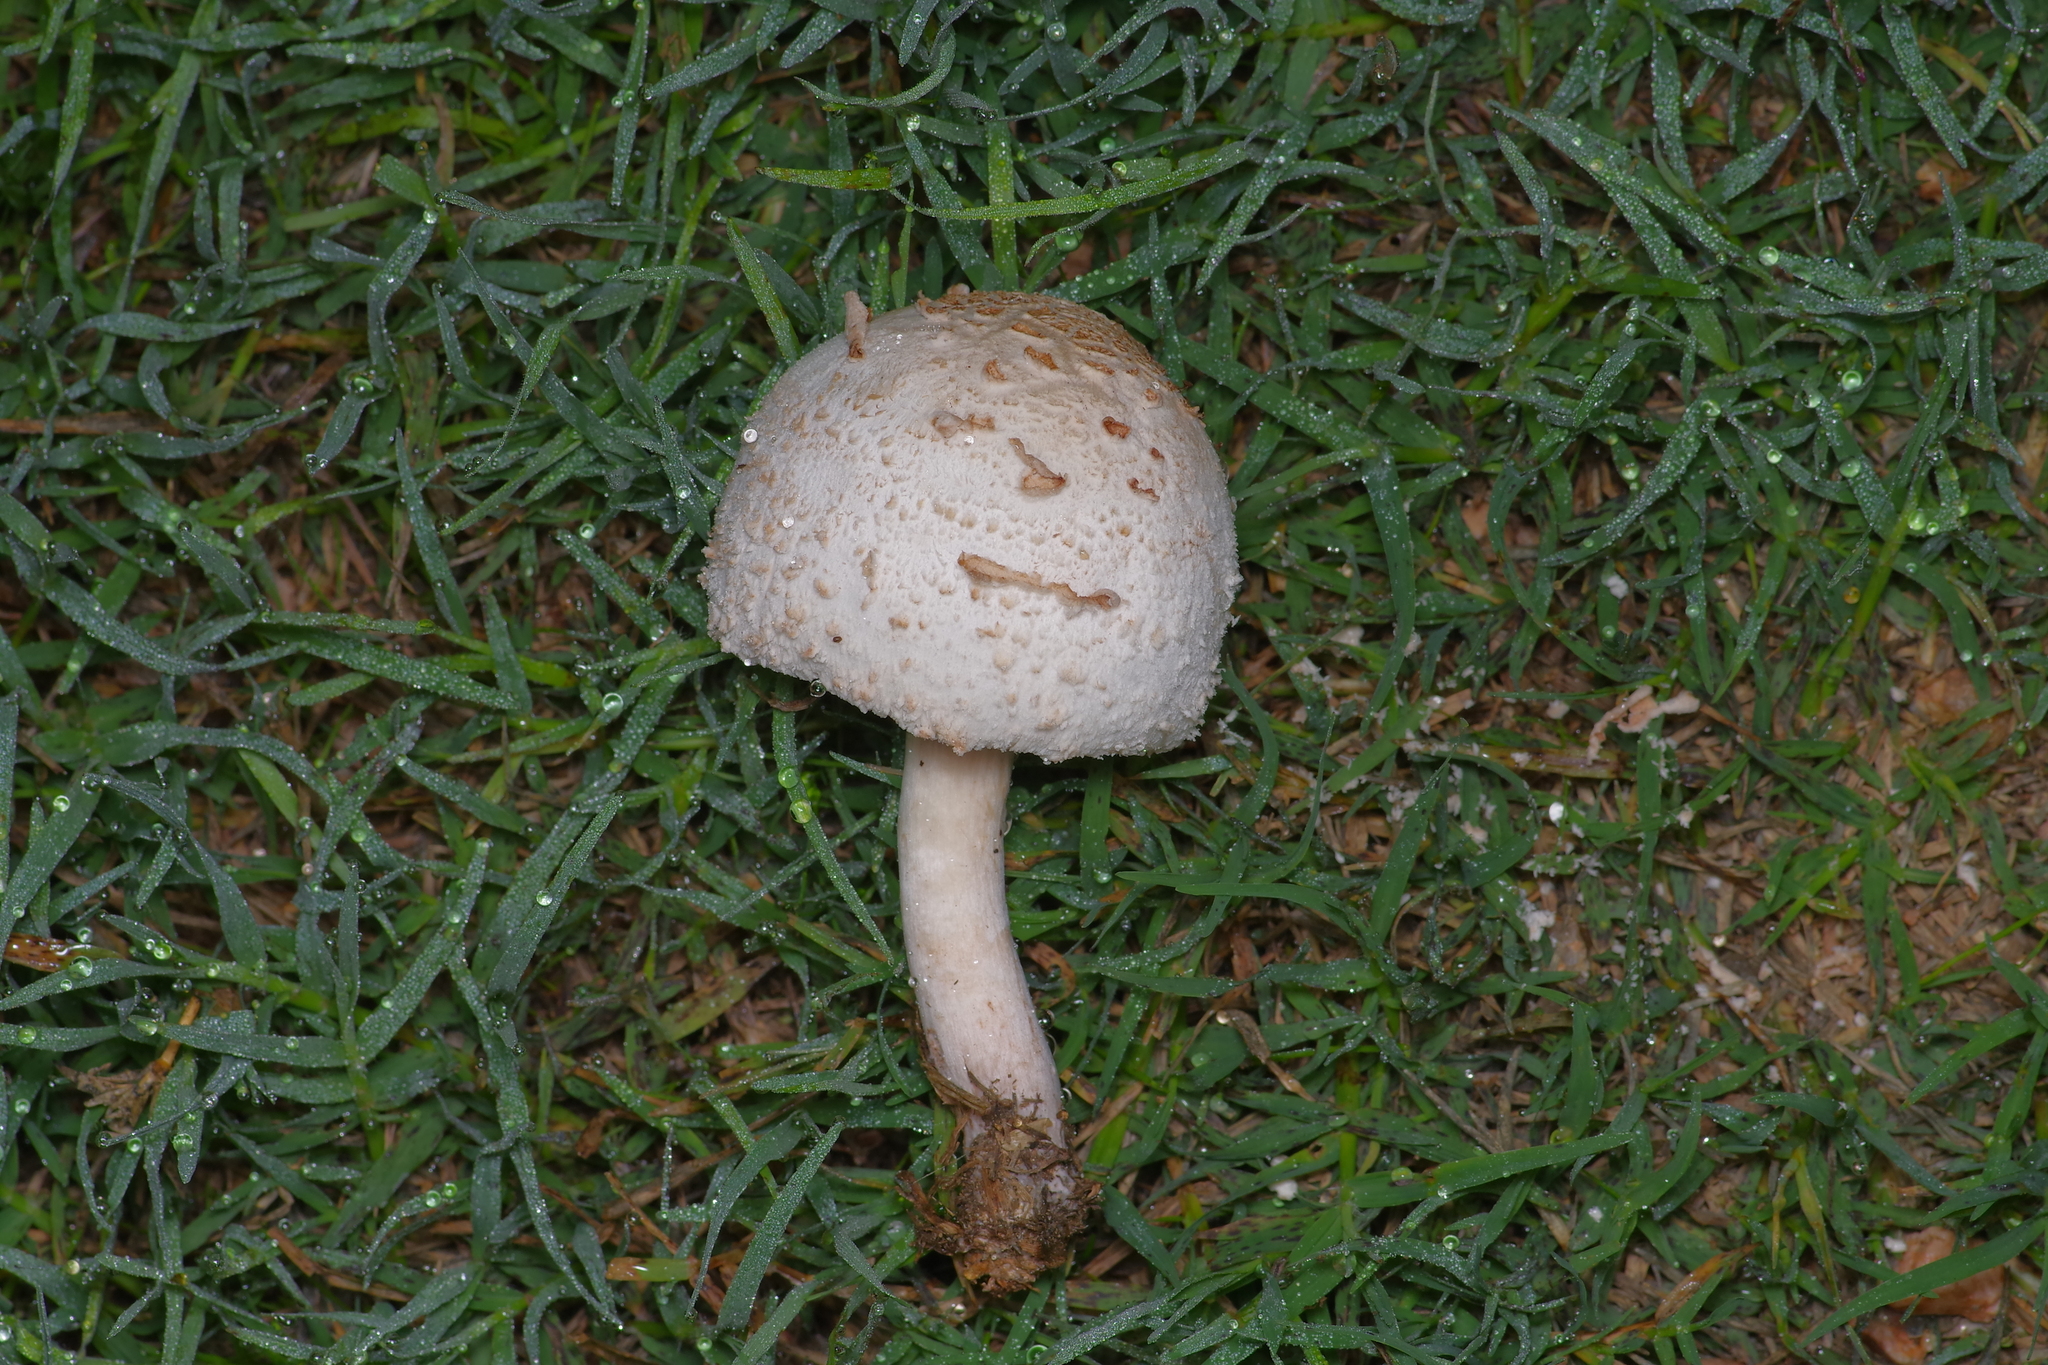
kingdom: Fungi
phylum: Basidiomycota
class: Agaricomycetes
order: Agaricales
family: Agaricaceae
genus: Chlorophyllum
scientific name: Chlorophyllum molybdites
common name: False parasol
